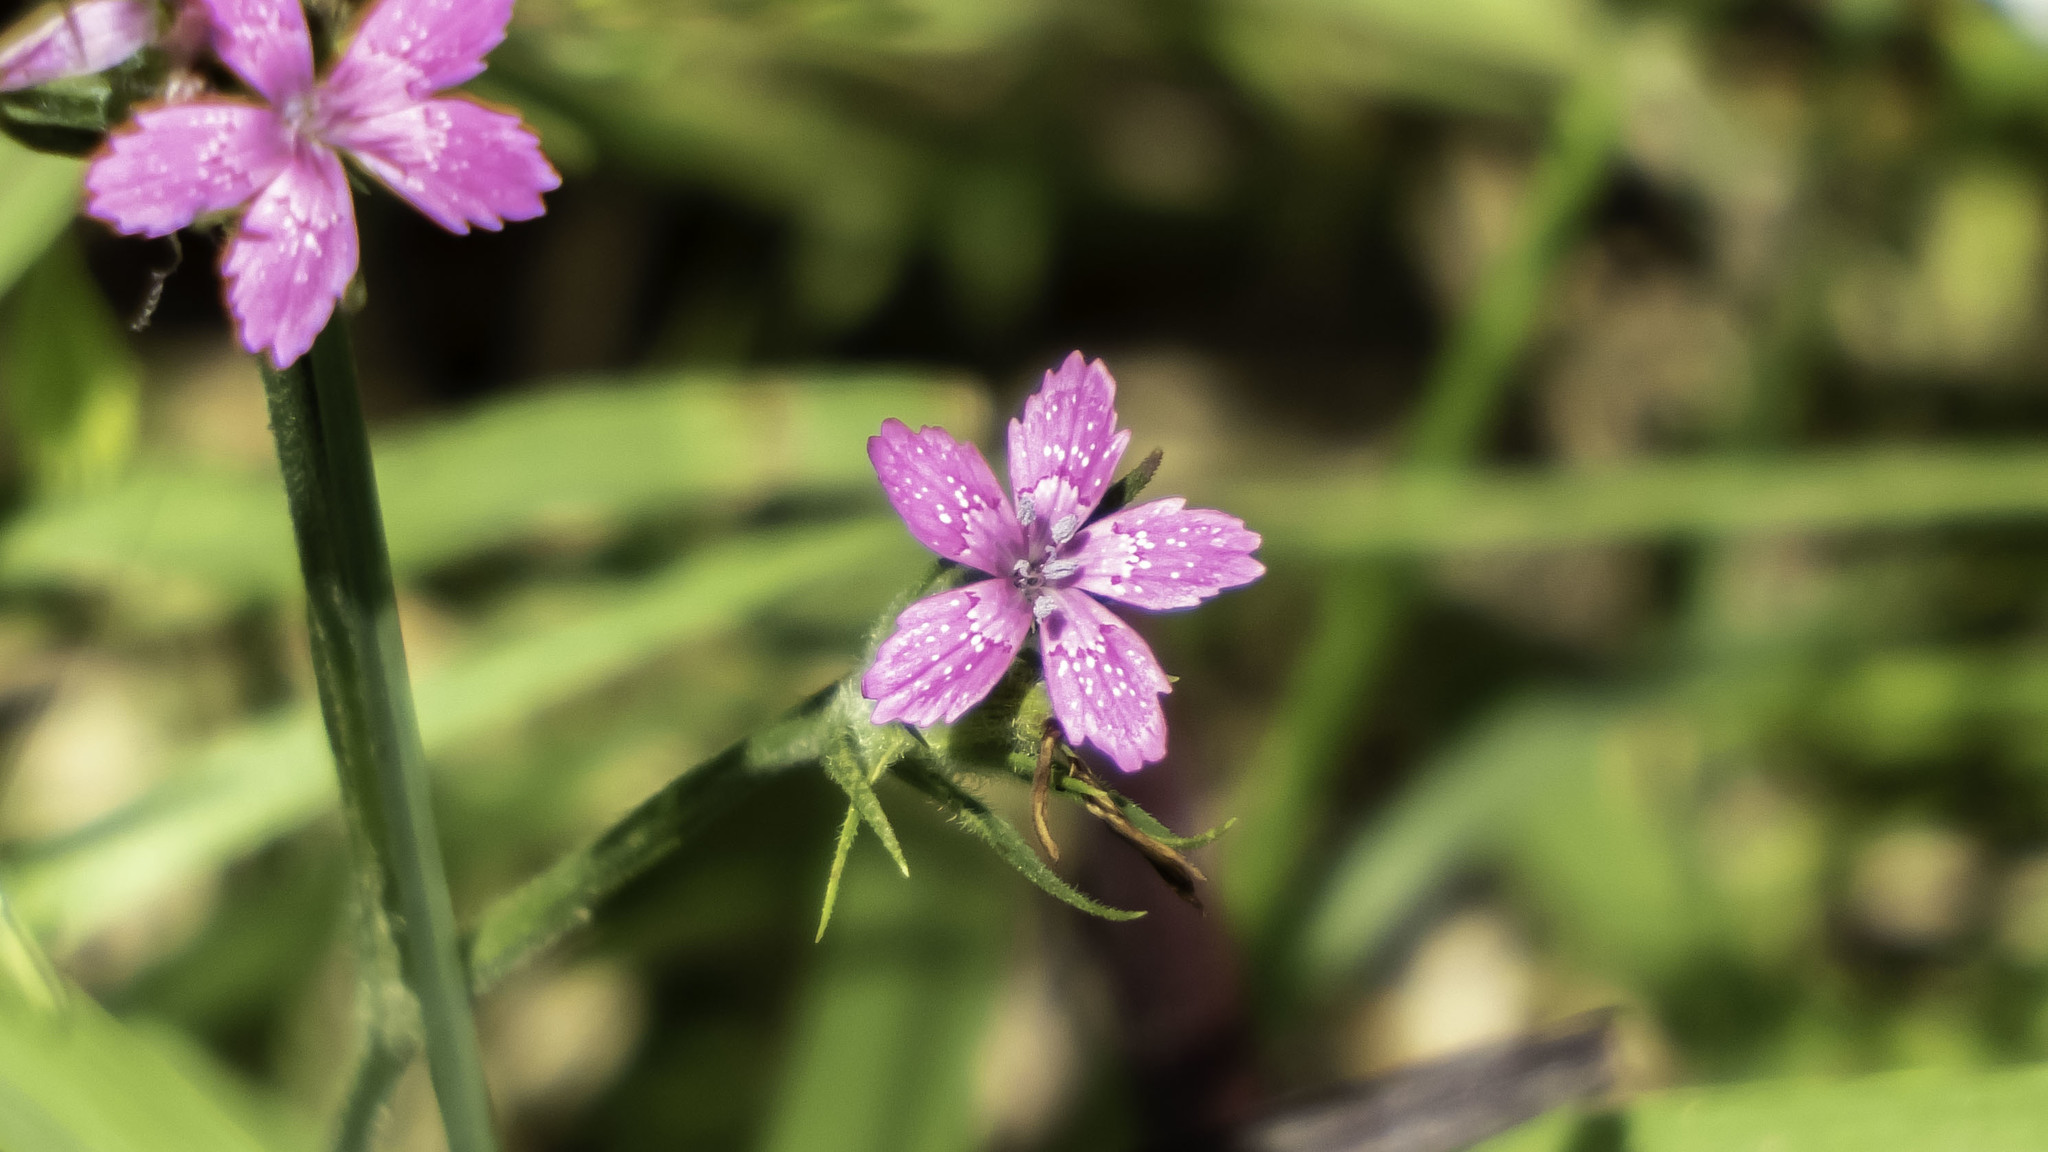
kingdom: Plantae
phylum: Tracheophyta
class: Magnoliopsida
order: Caryophyllales
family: Caryophyllaceae
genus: Dianthus
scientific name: Dianthus armeria
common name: Deptford pink
